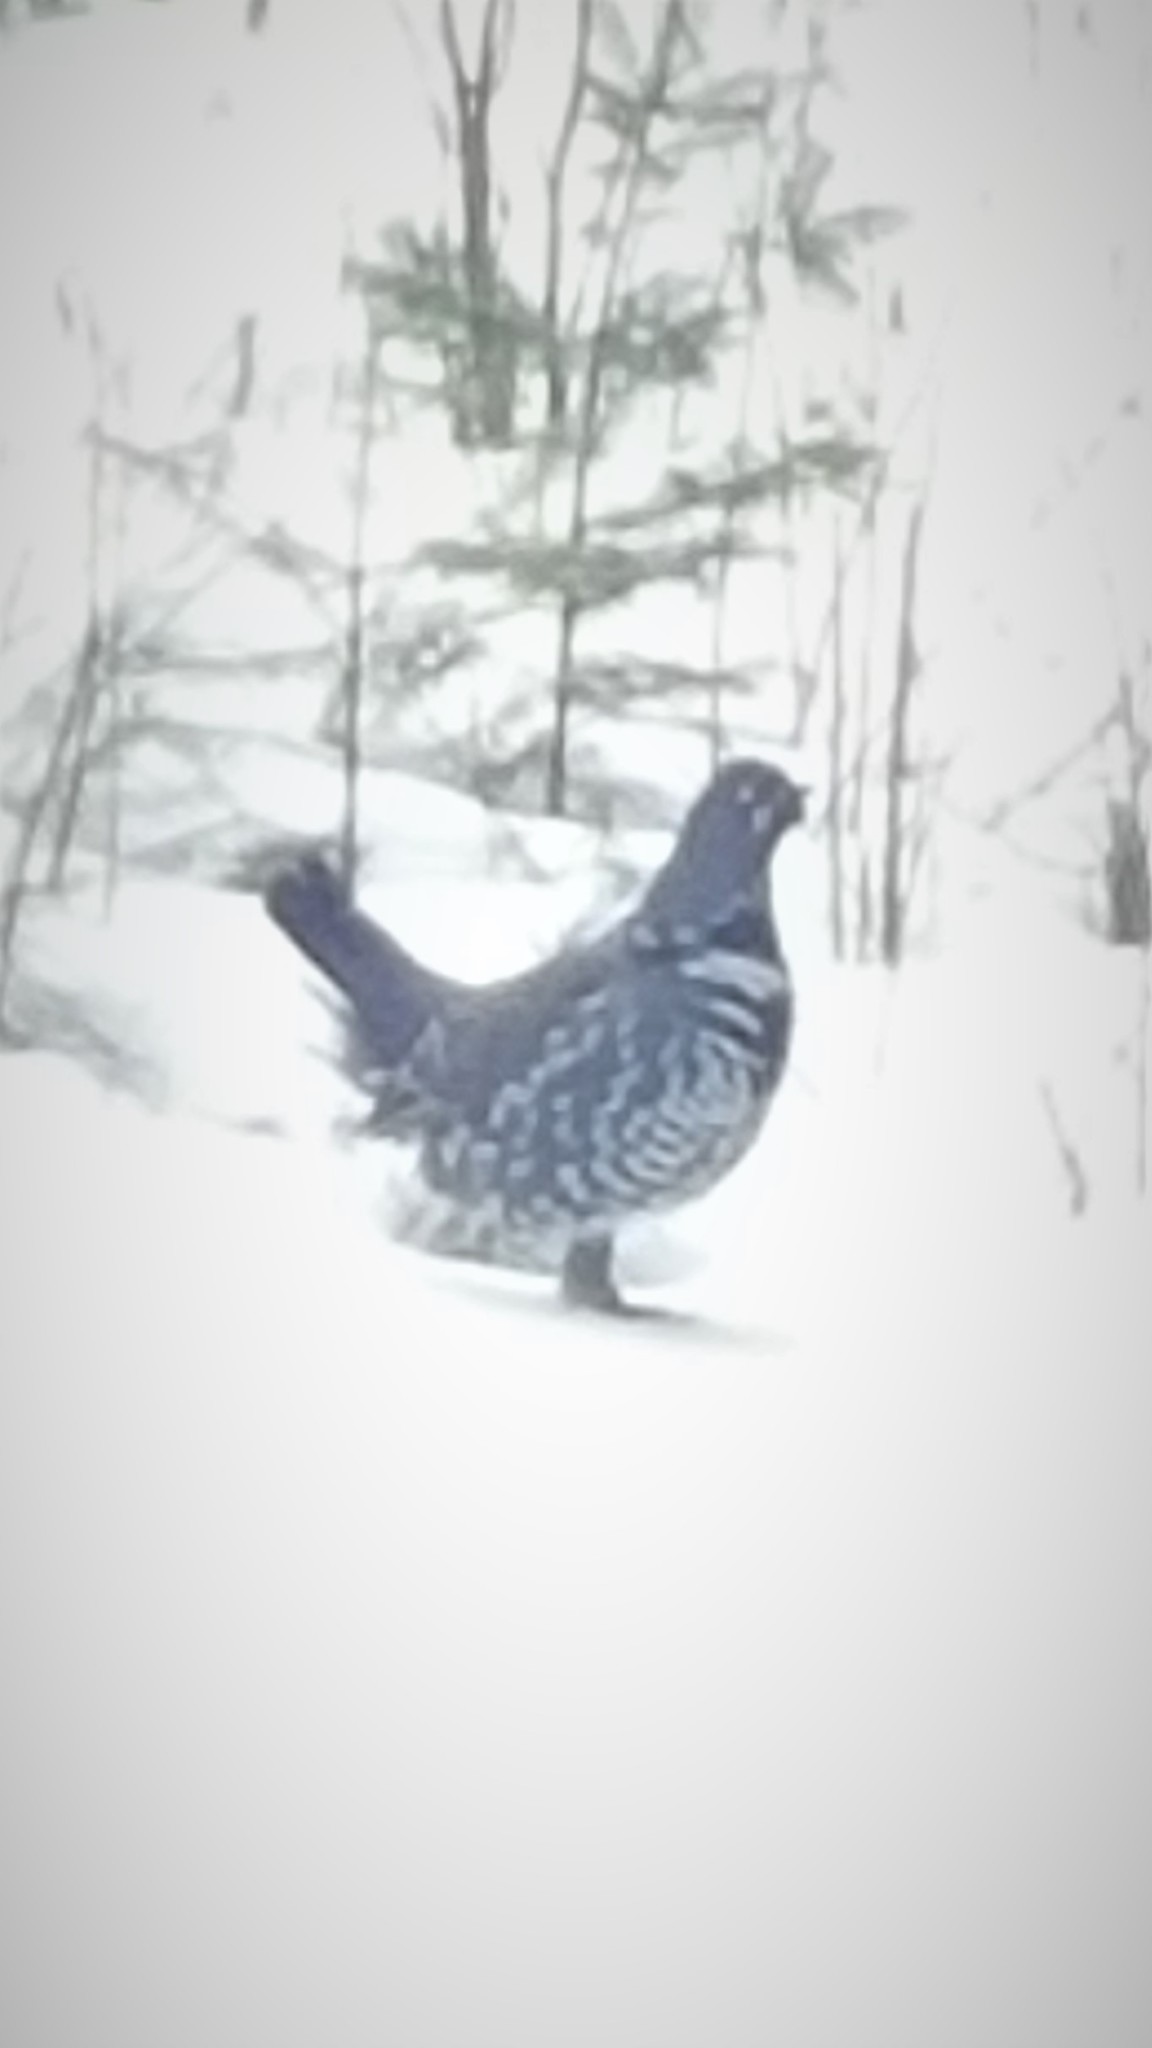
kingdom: Animalia
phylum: Chordata
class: Aves
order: Galliformes
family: Phasianidae
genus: Canachites
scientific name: Canachites canadensis
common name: Spruce grouse
